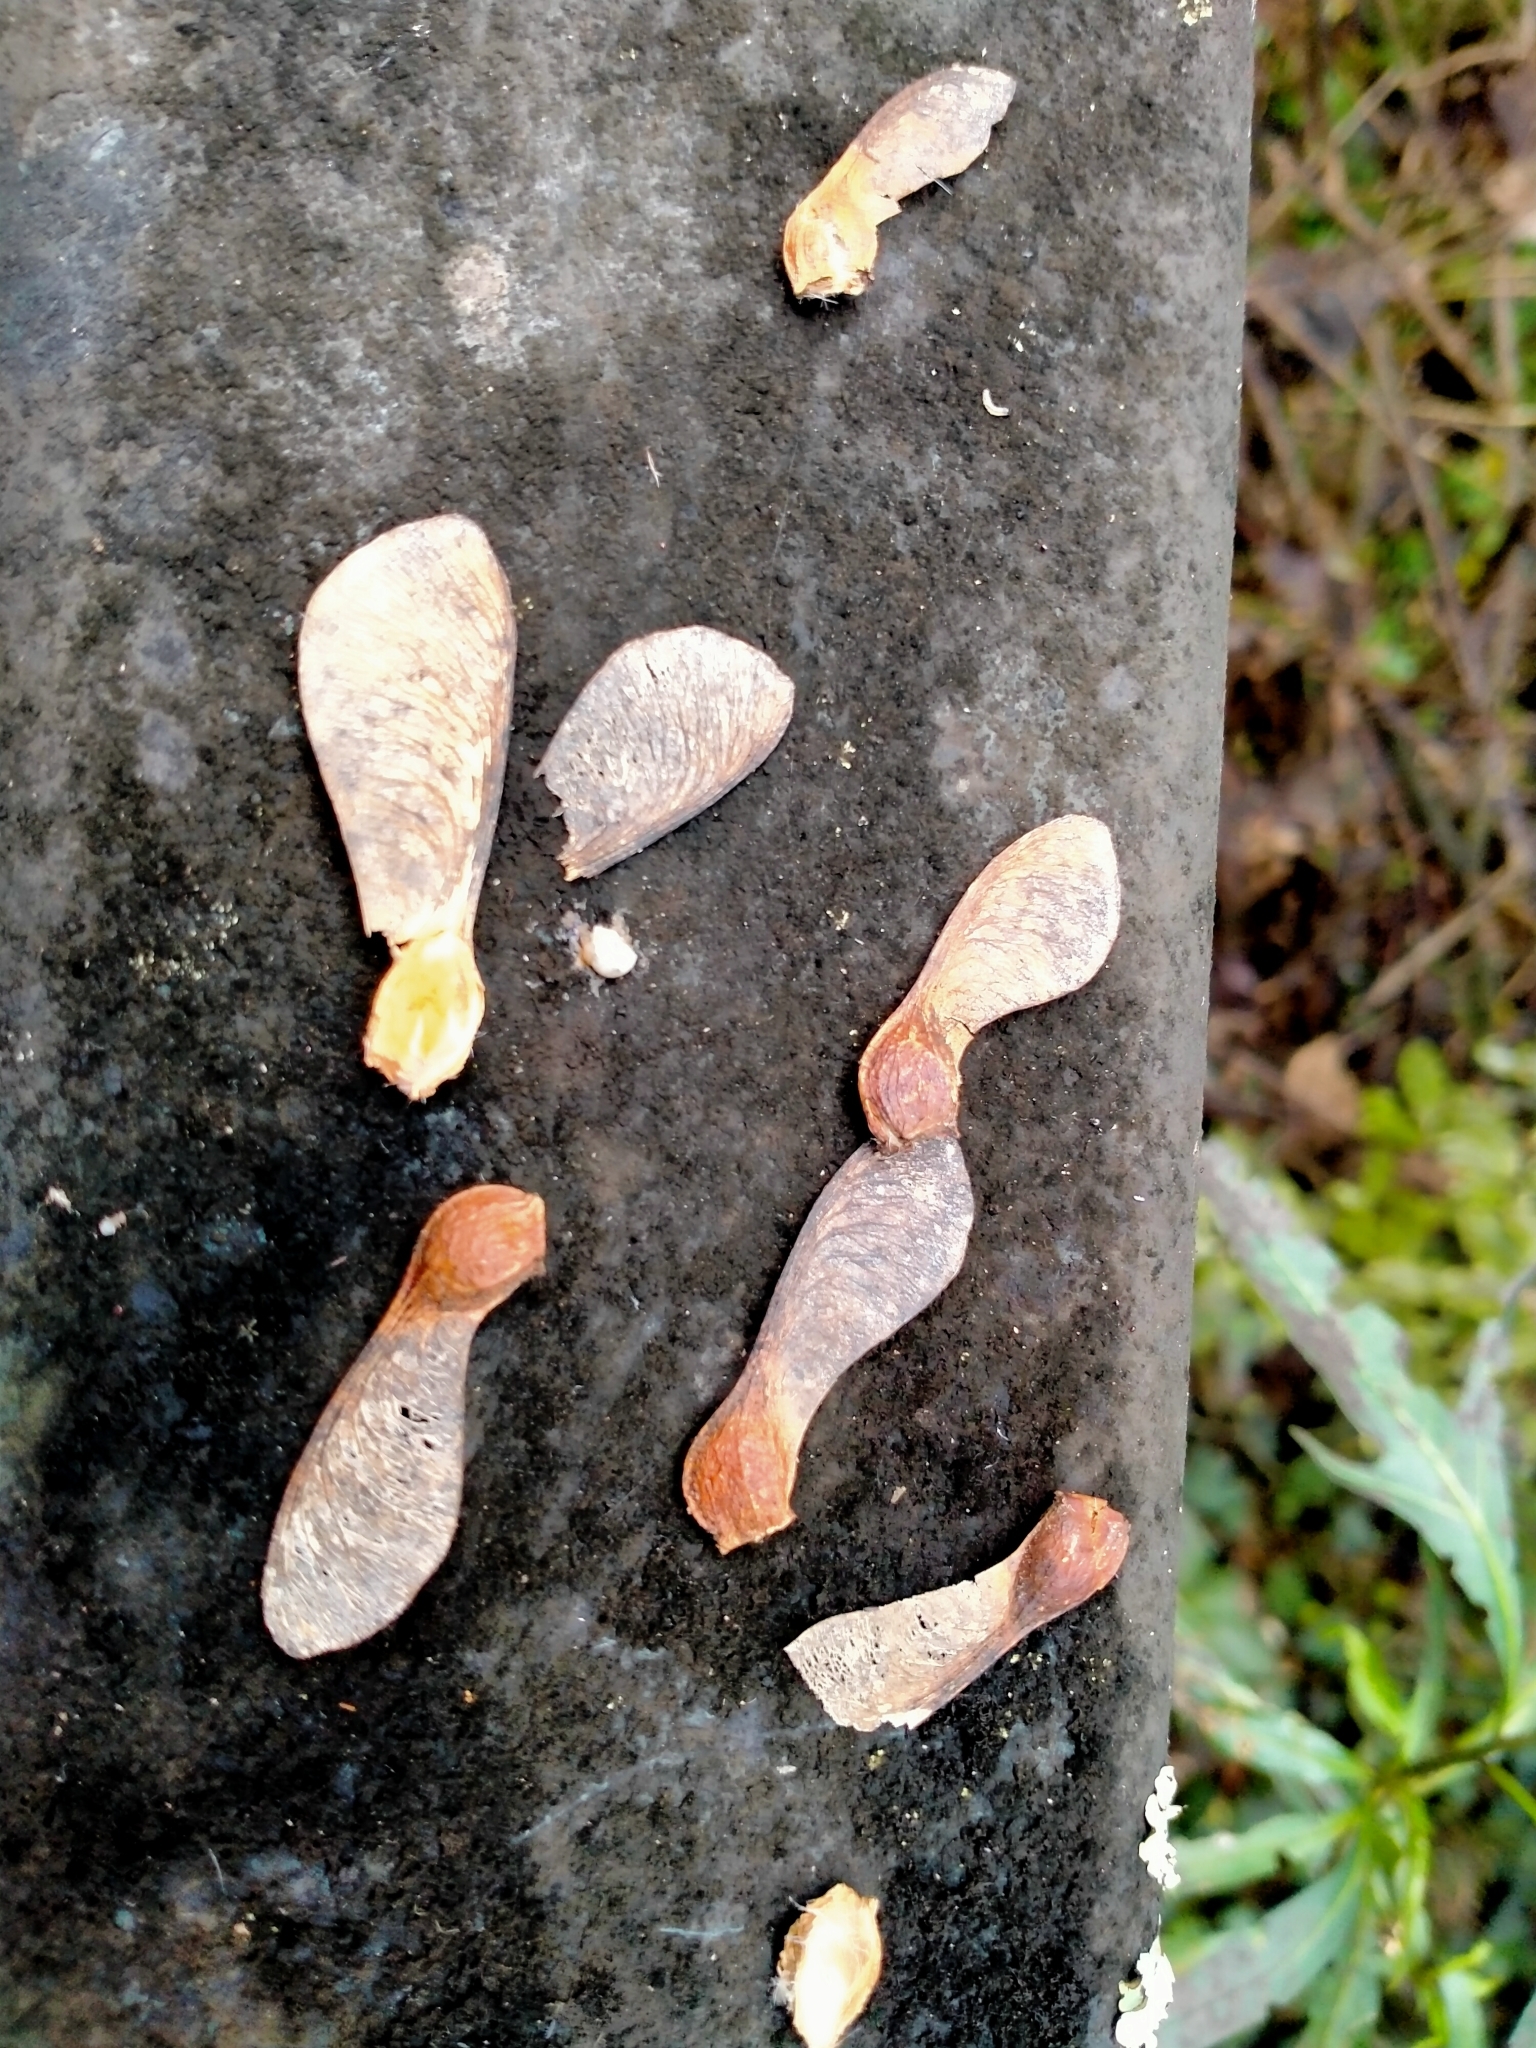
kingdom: Plantae
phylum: Tracheophyta
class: Magnoliopsida
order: Sapindales
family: Sapindaceae
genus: Acer
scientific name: Acer pseudoplatanus
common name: Sycamore
